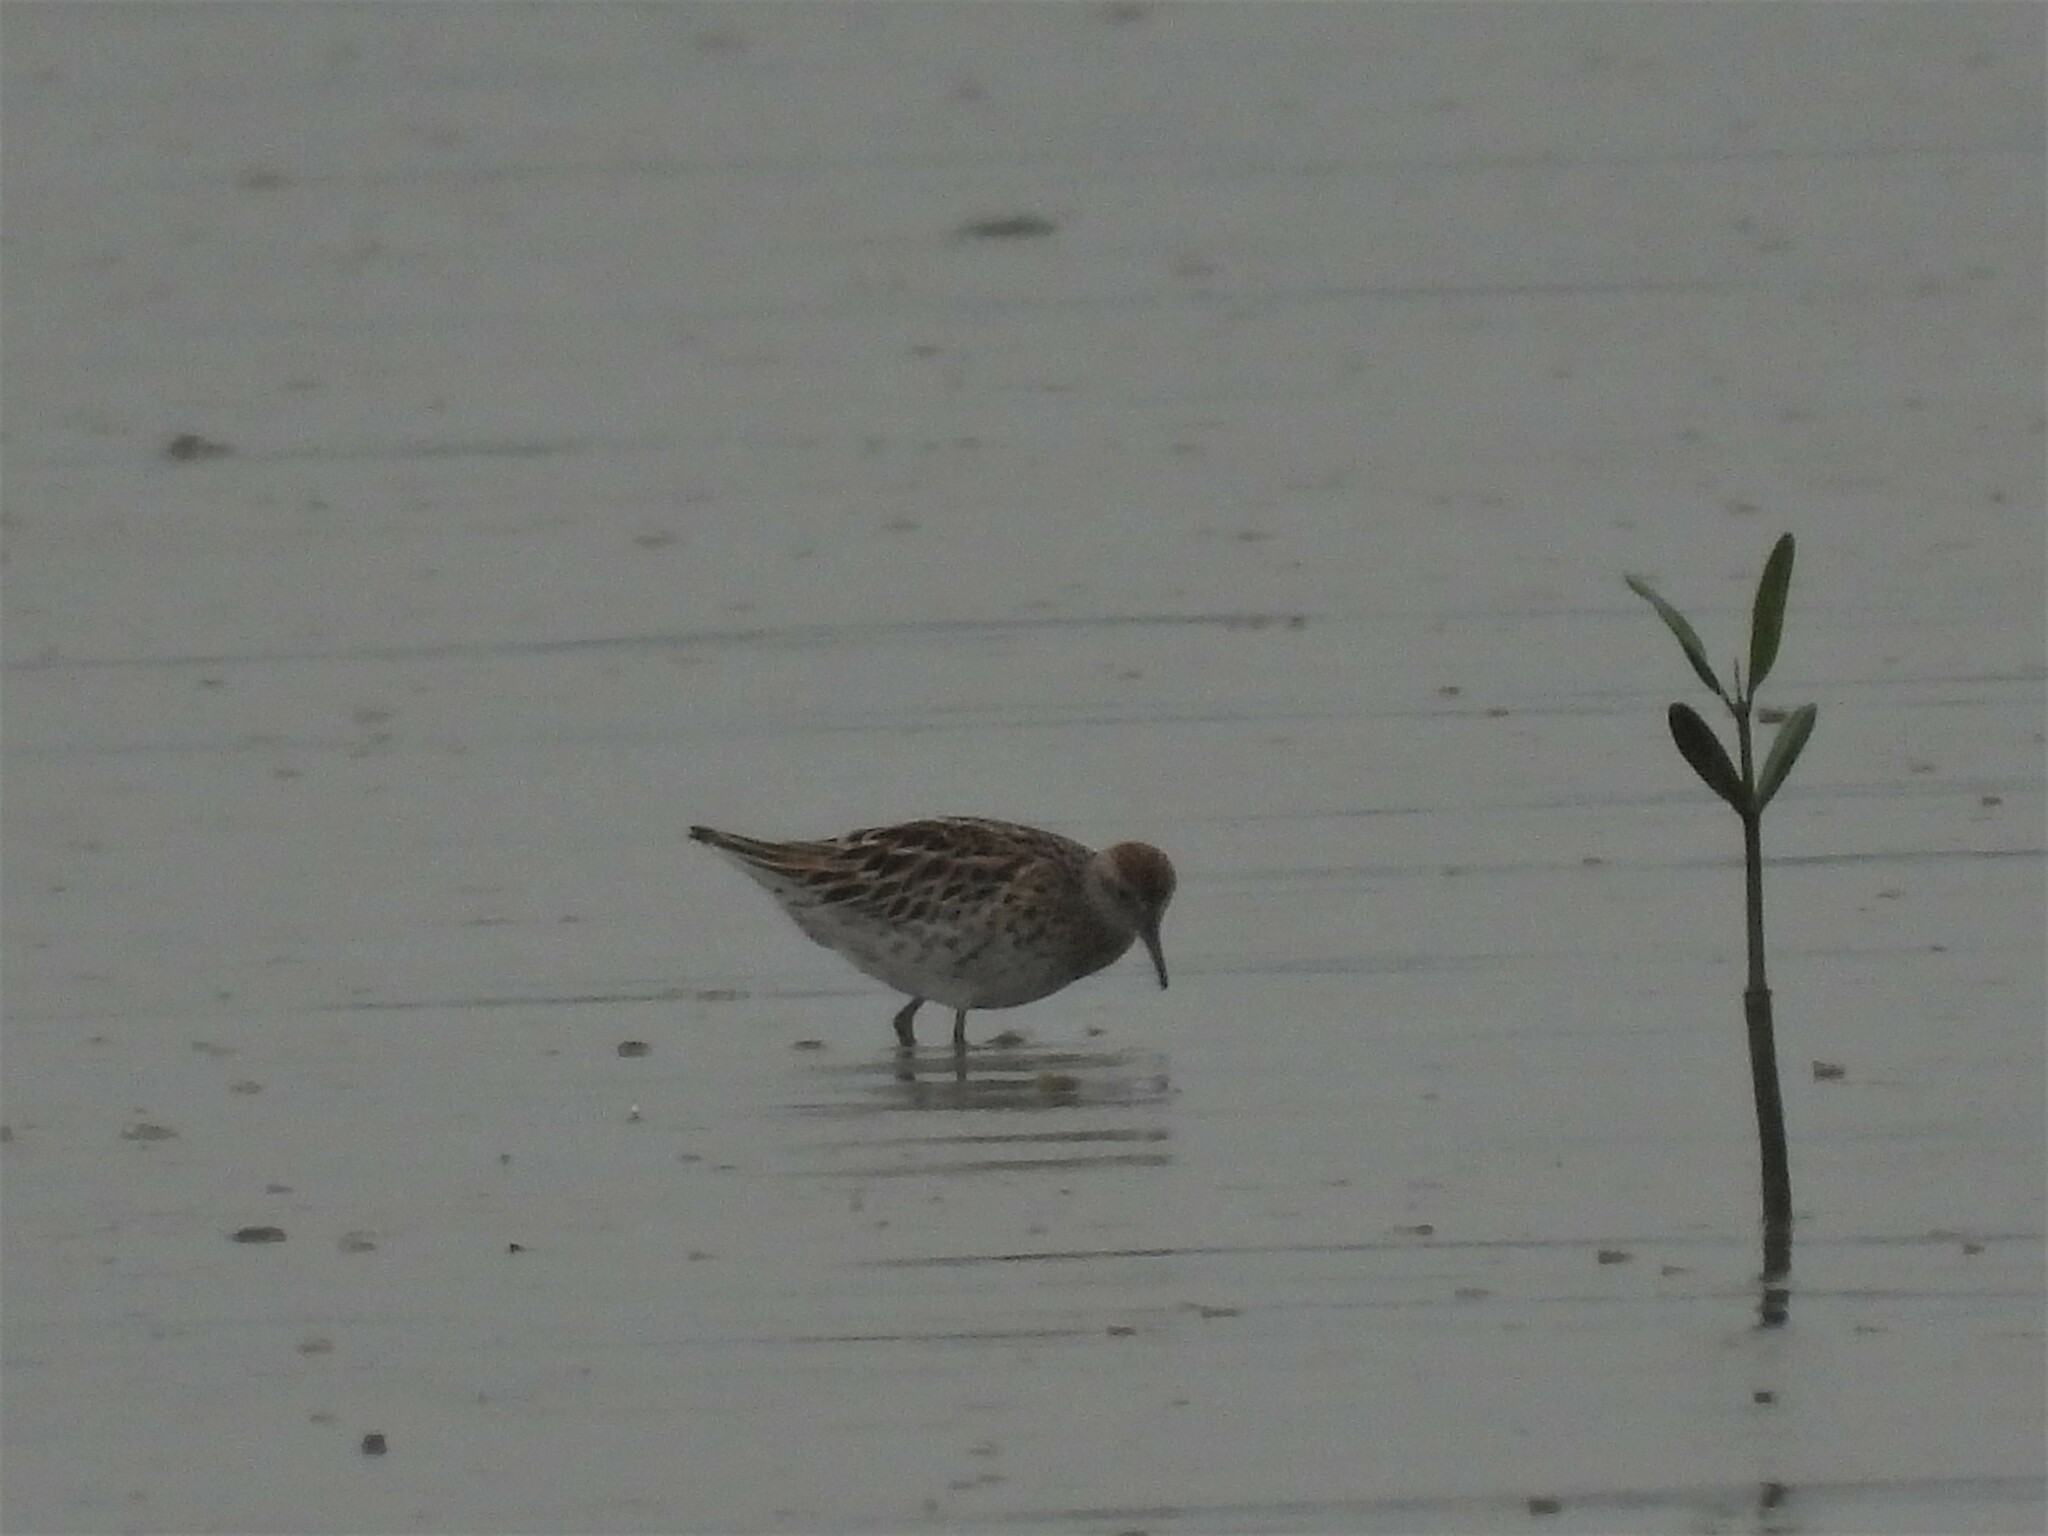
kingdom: Animalia
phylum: Chordata
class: Aves
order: Charadriiformes
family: Scolopacidae
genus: Calidris
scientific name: Calidris acuminata
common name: Sharp-tailed sandpiper
